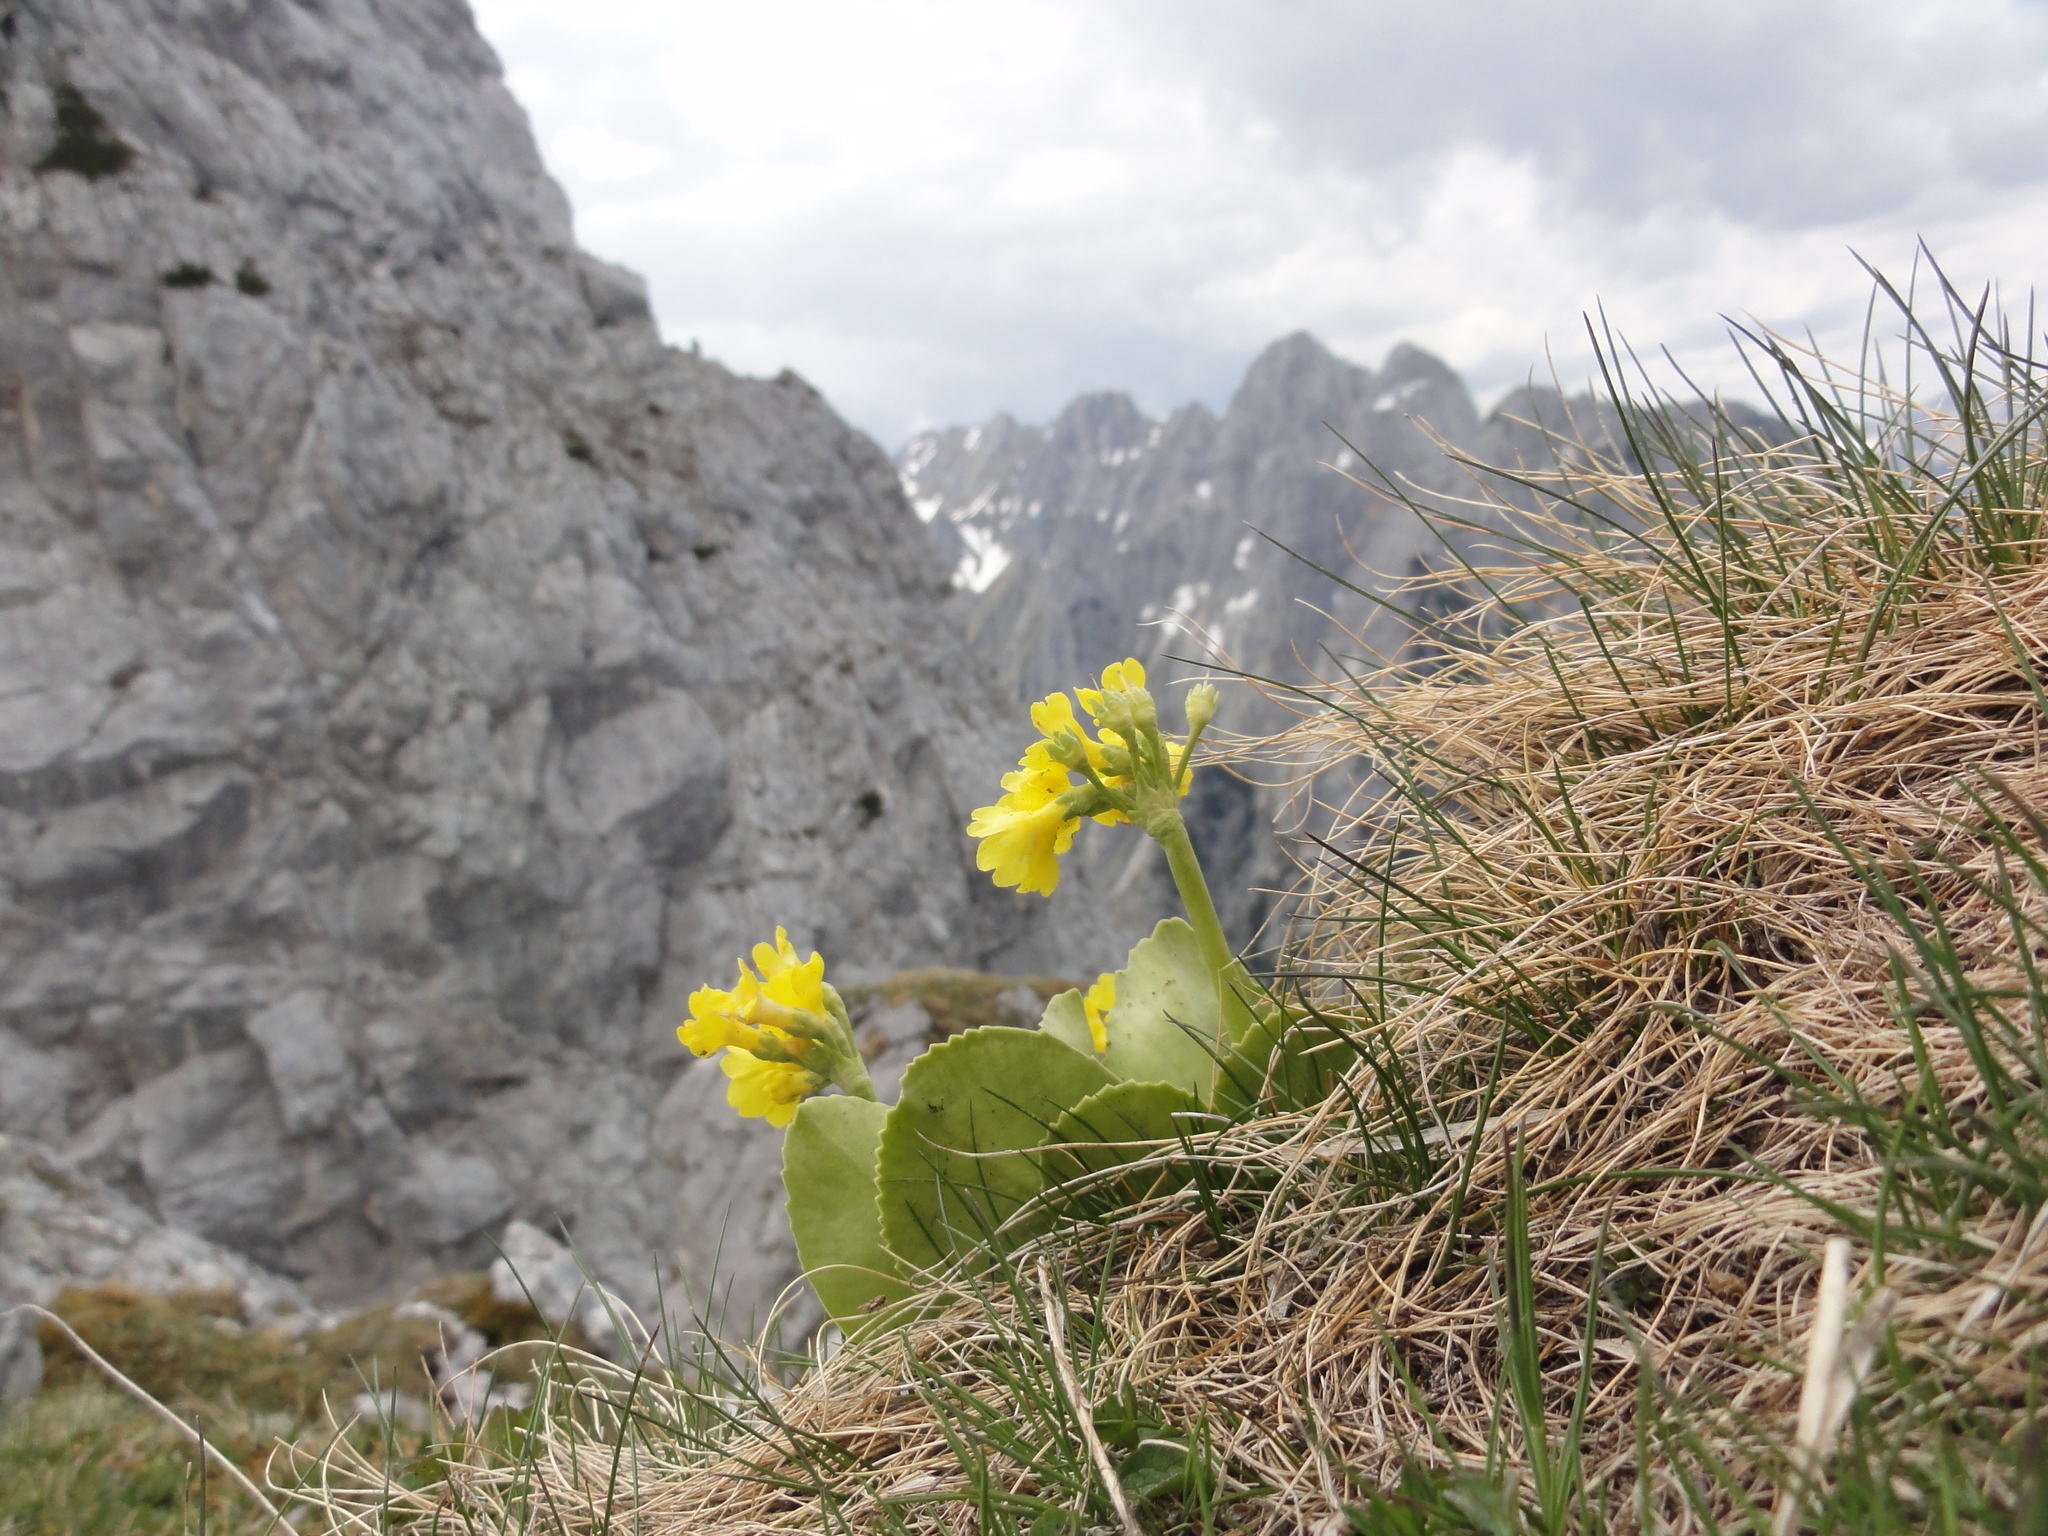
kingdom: Plantae
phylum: Tracheophyta
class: Magnoliopsida
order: Ericales
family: Primulaceae
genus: Primula
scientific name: Primula auricula
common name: Auricula
